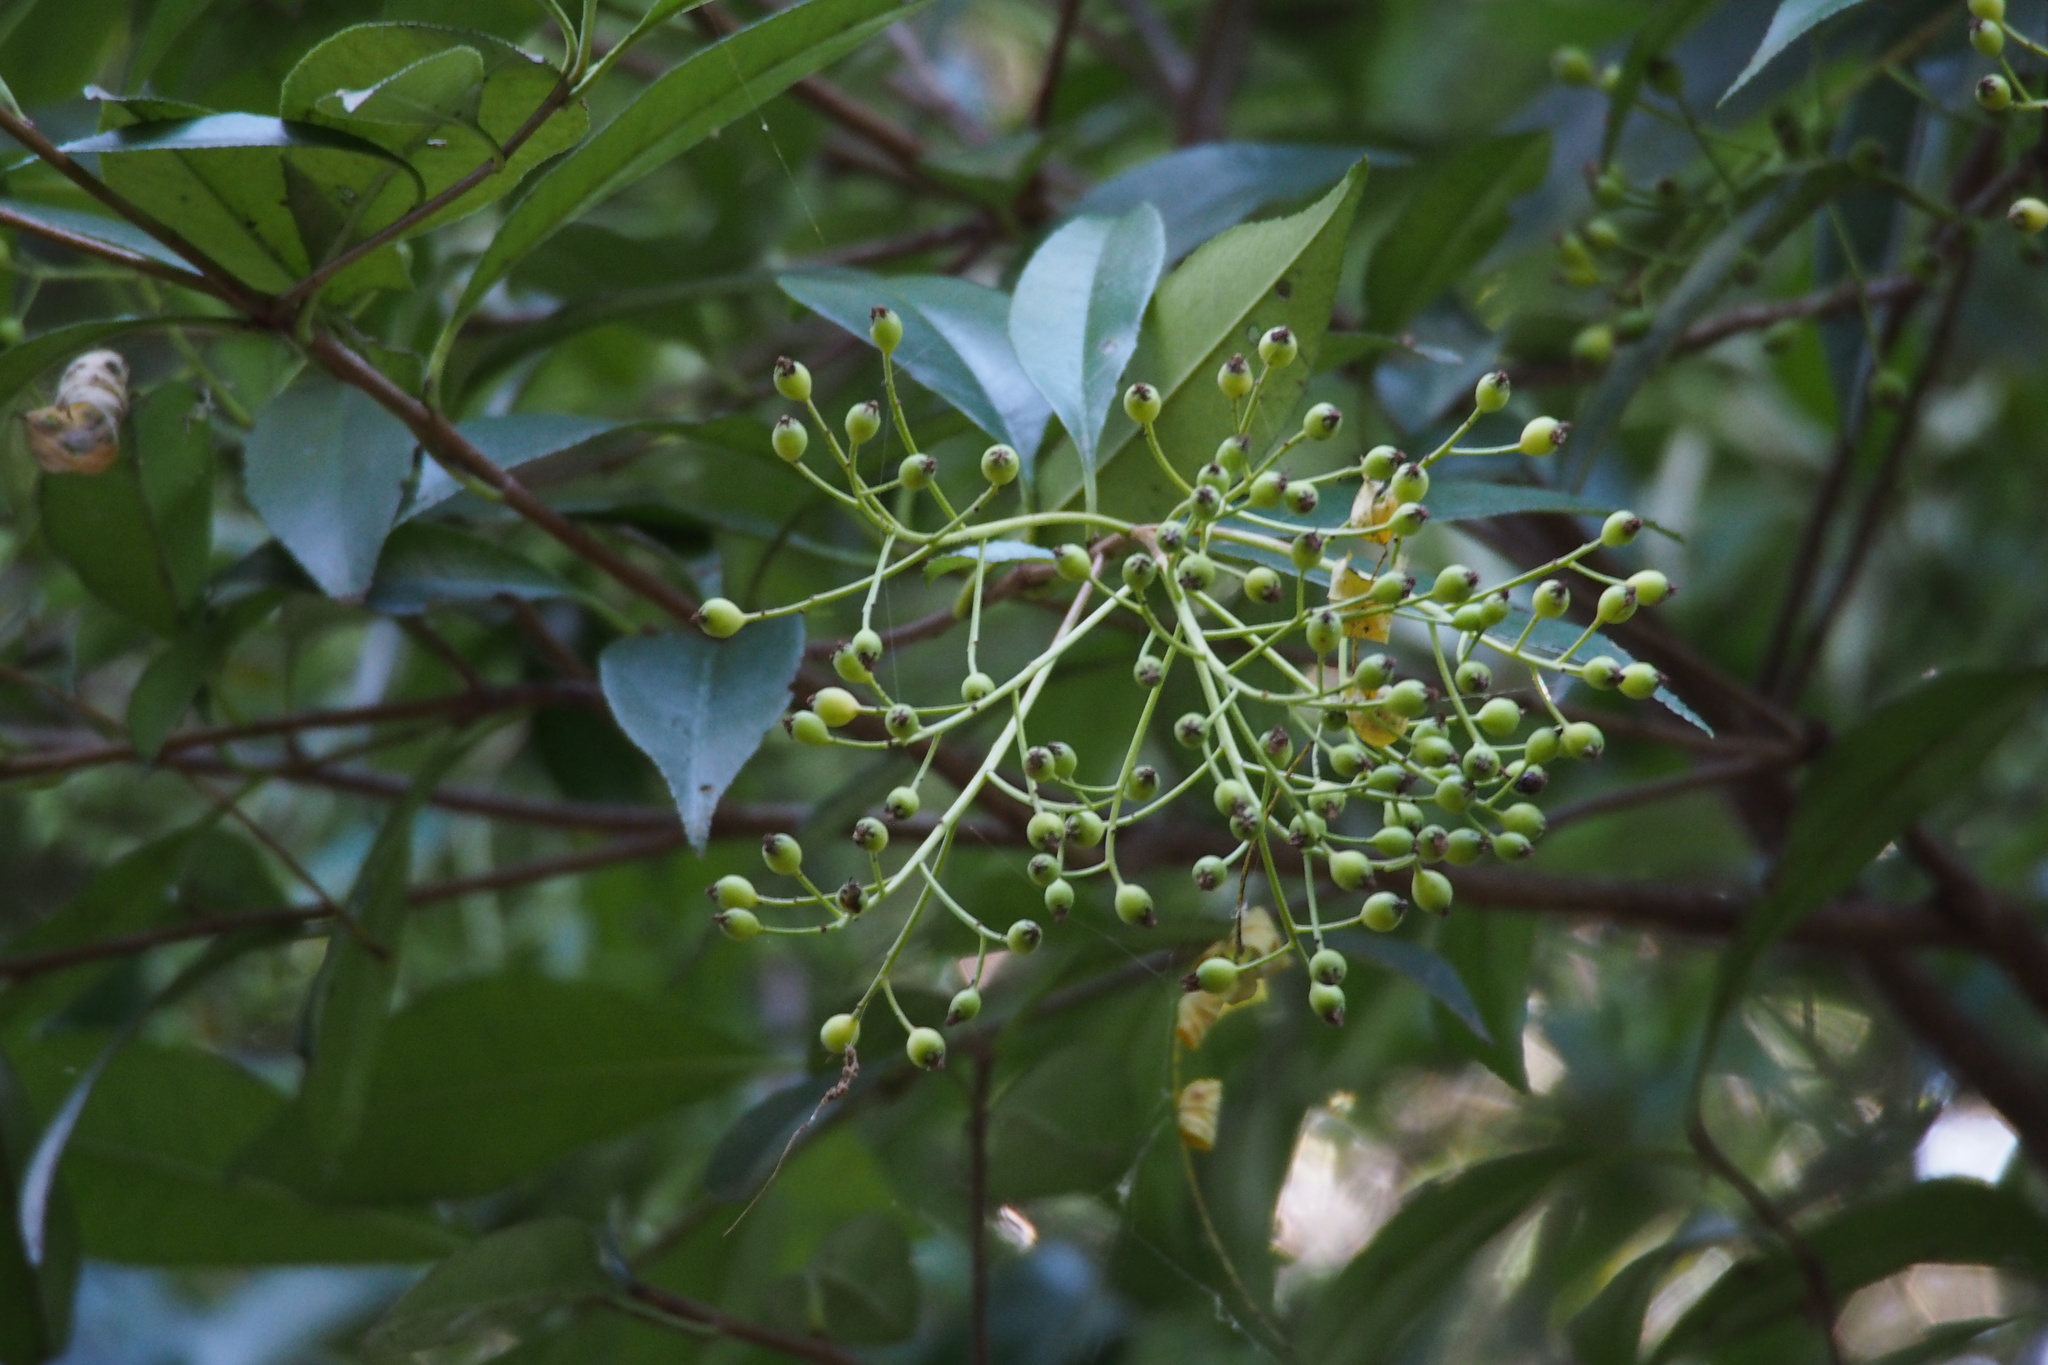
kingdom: Plantae
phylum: Tracheophyta
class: Magnoliopsida
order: Rosales
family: Rosaceae
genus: Photinia
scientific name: Photinia glabra
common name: Japanese photinia
